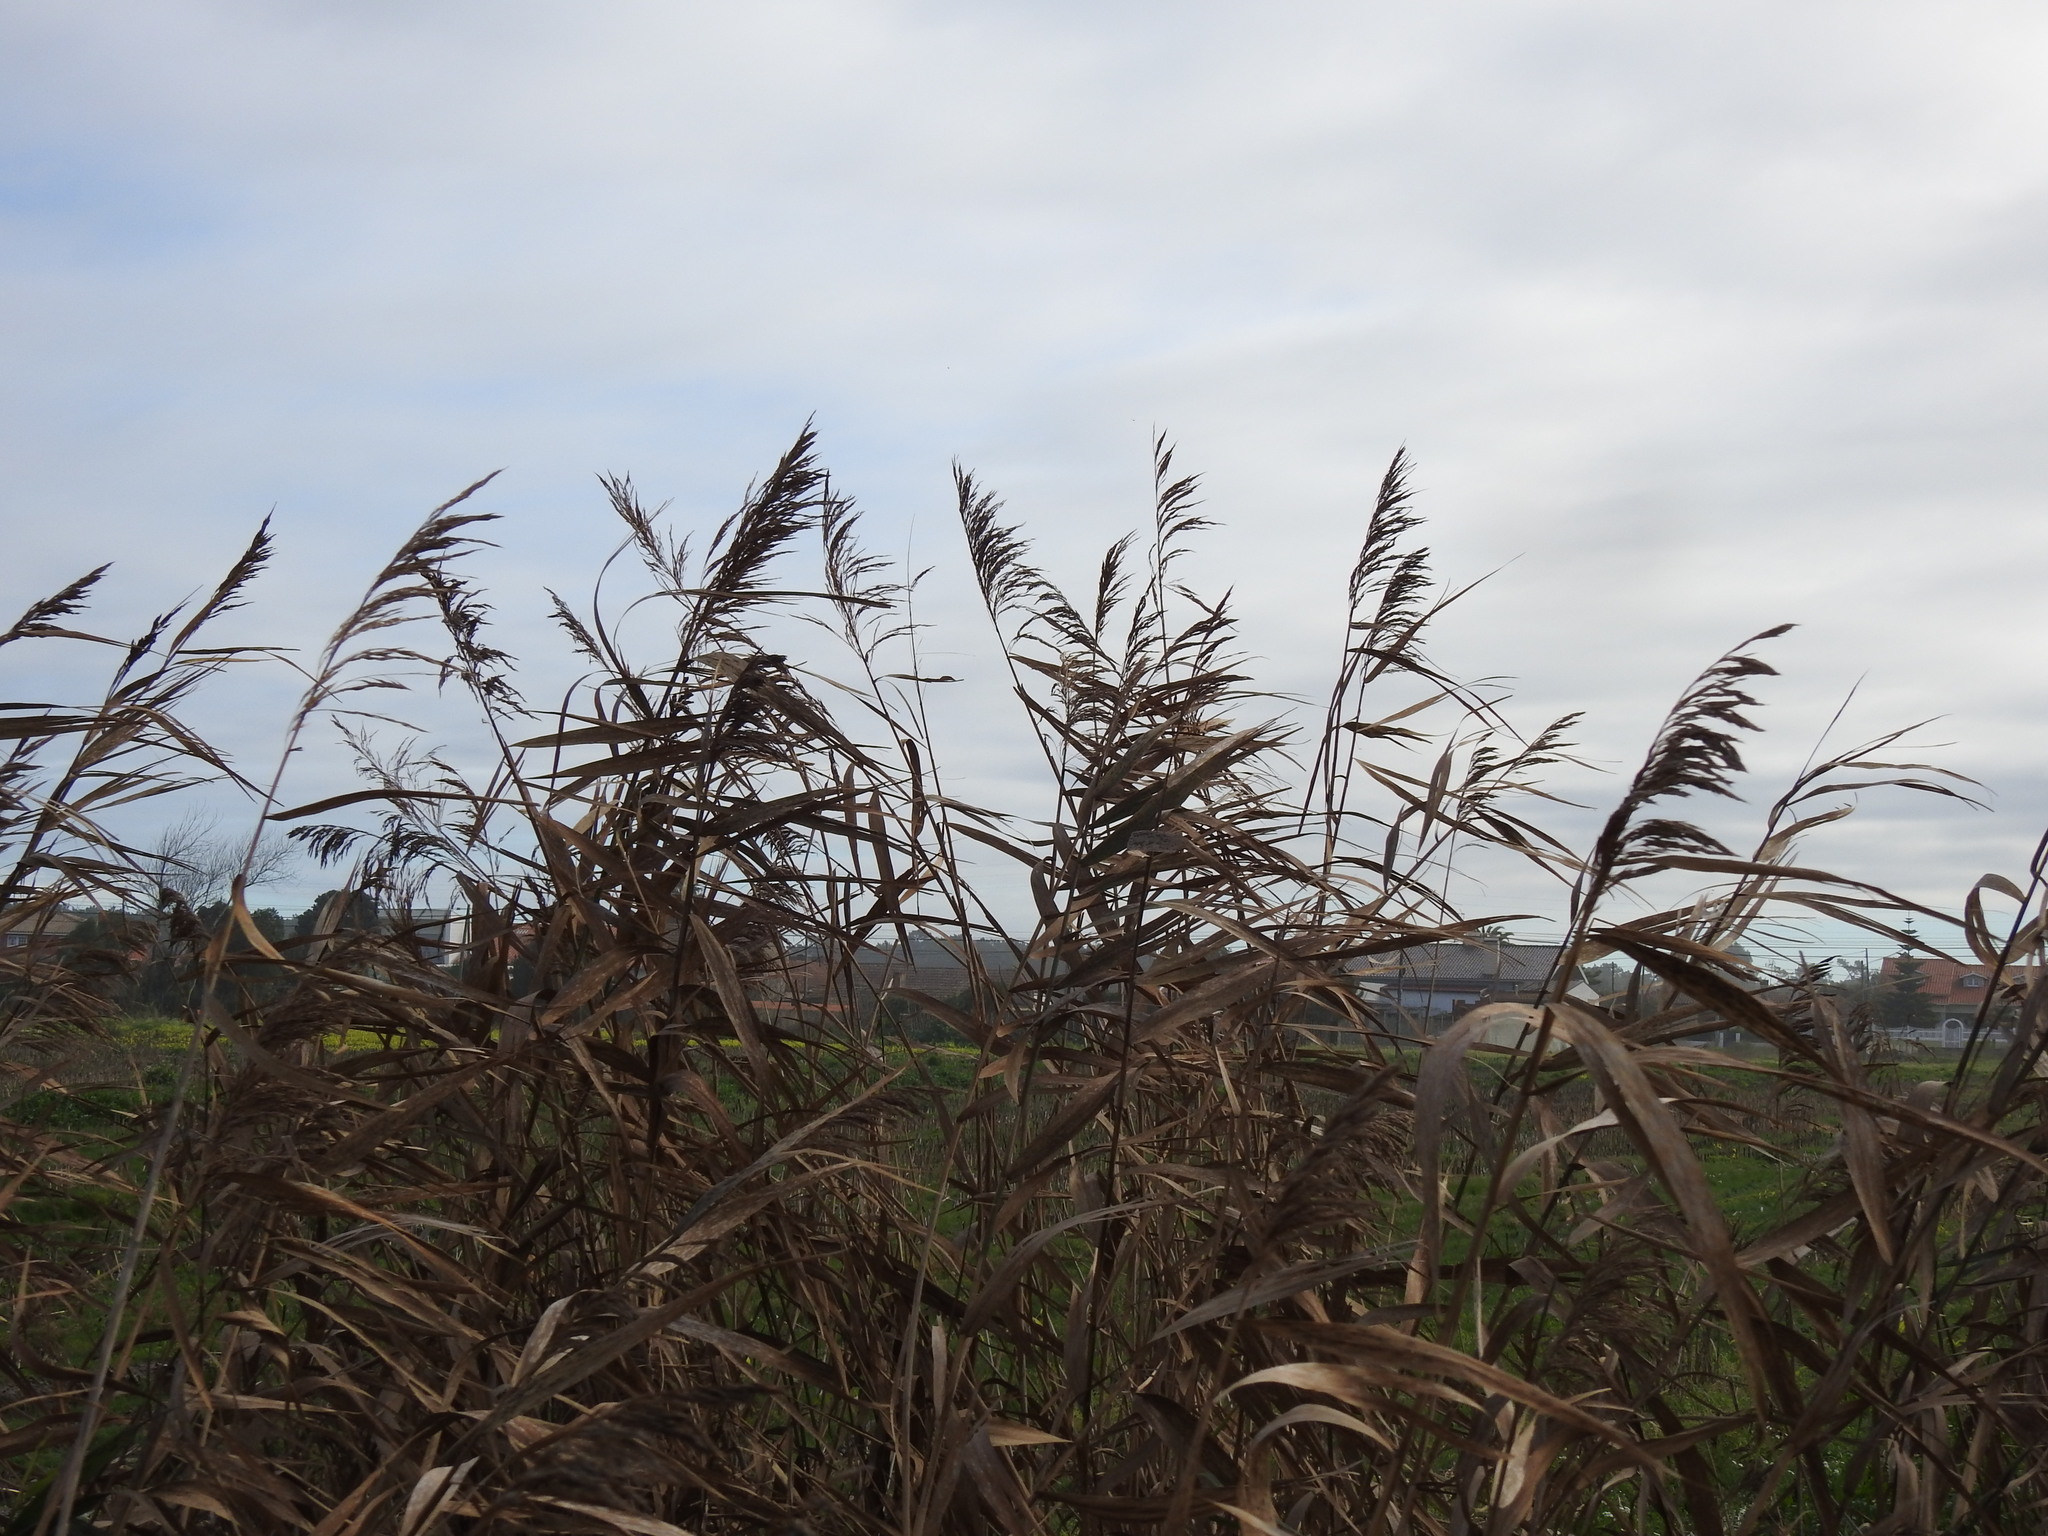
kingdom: Plantae
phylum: Tracheophyta
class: Liliopsida
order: Poales
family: Poaceae
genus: Phragmites
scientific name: Phragmites australis
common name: Common reed
